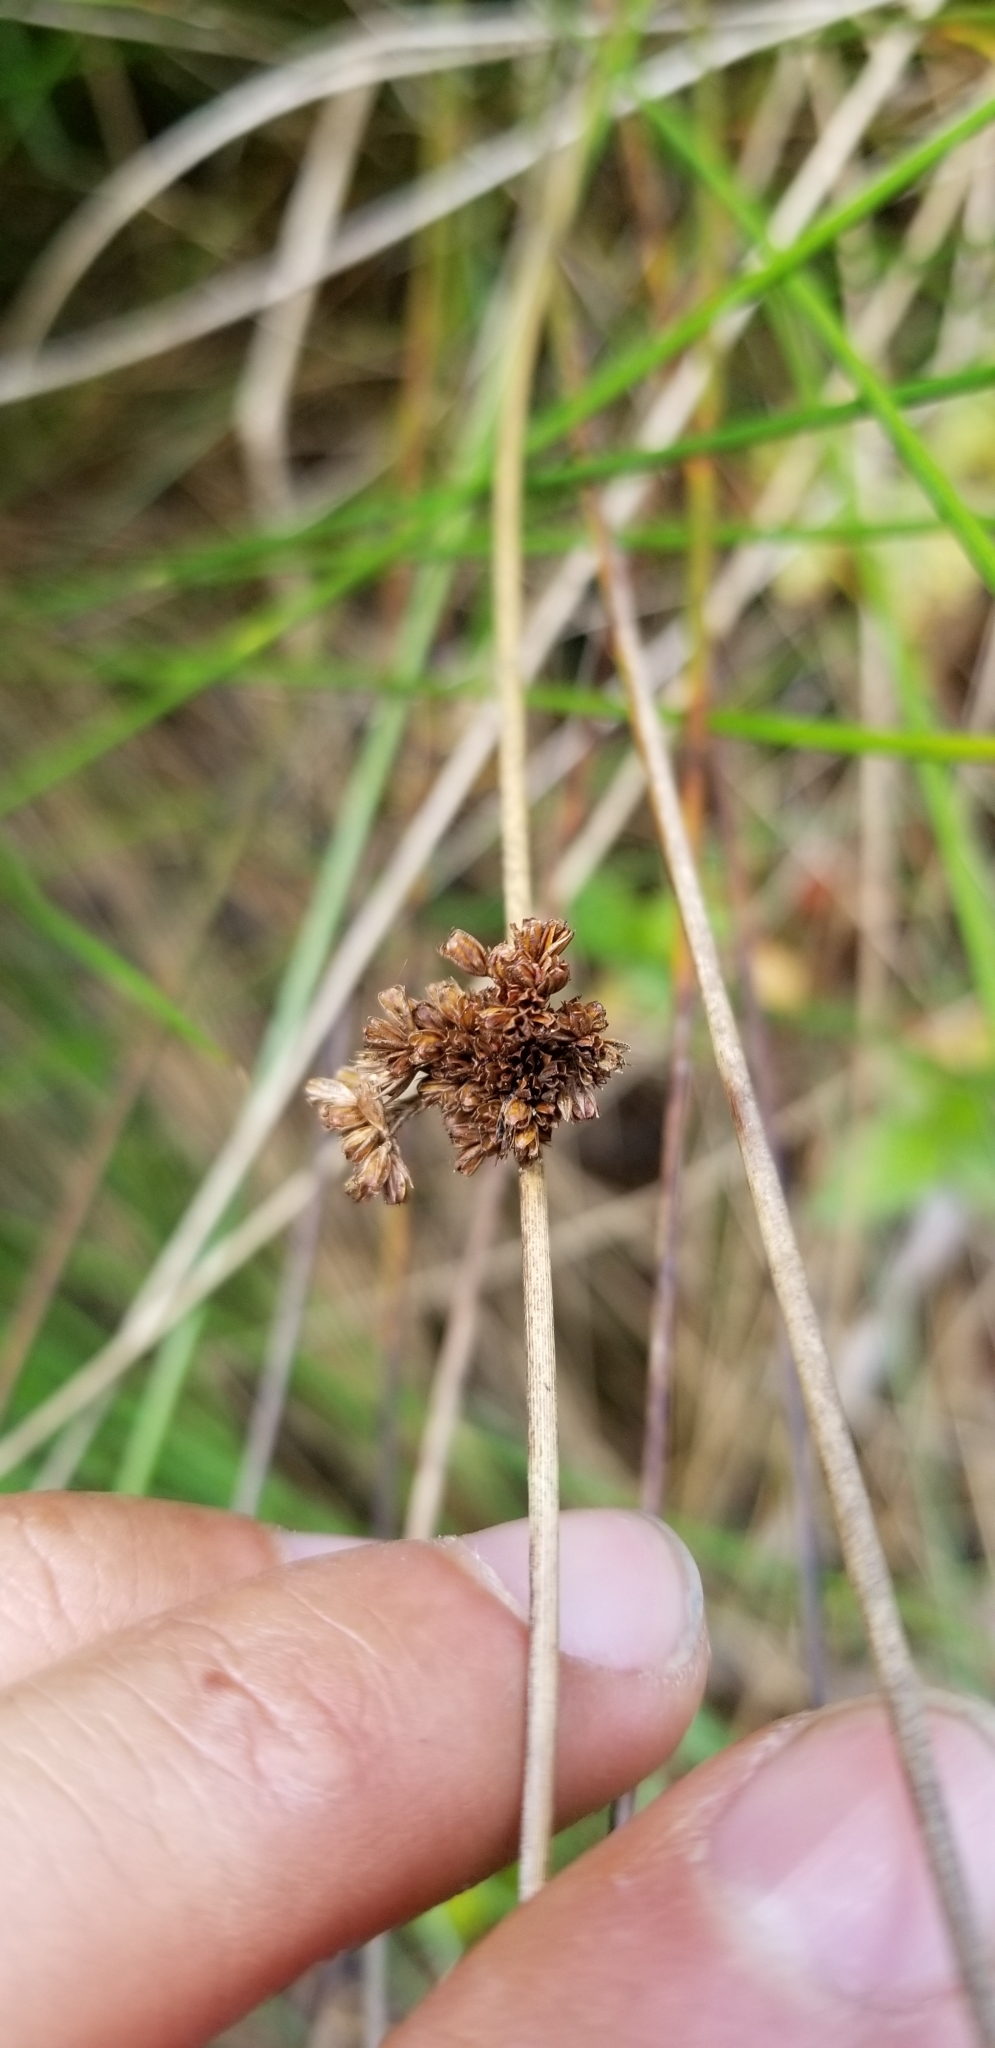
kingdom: Plantae
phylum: Tracheophyta
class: Liliopsida
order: Poales
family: Juncaceae
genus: Juncus
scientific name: Juncus effusus
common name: Soft rush
